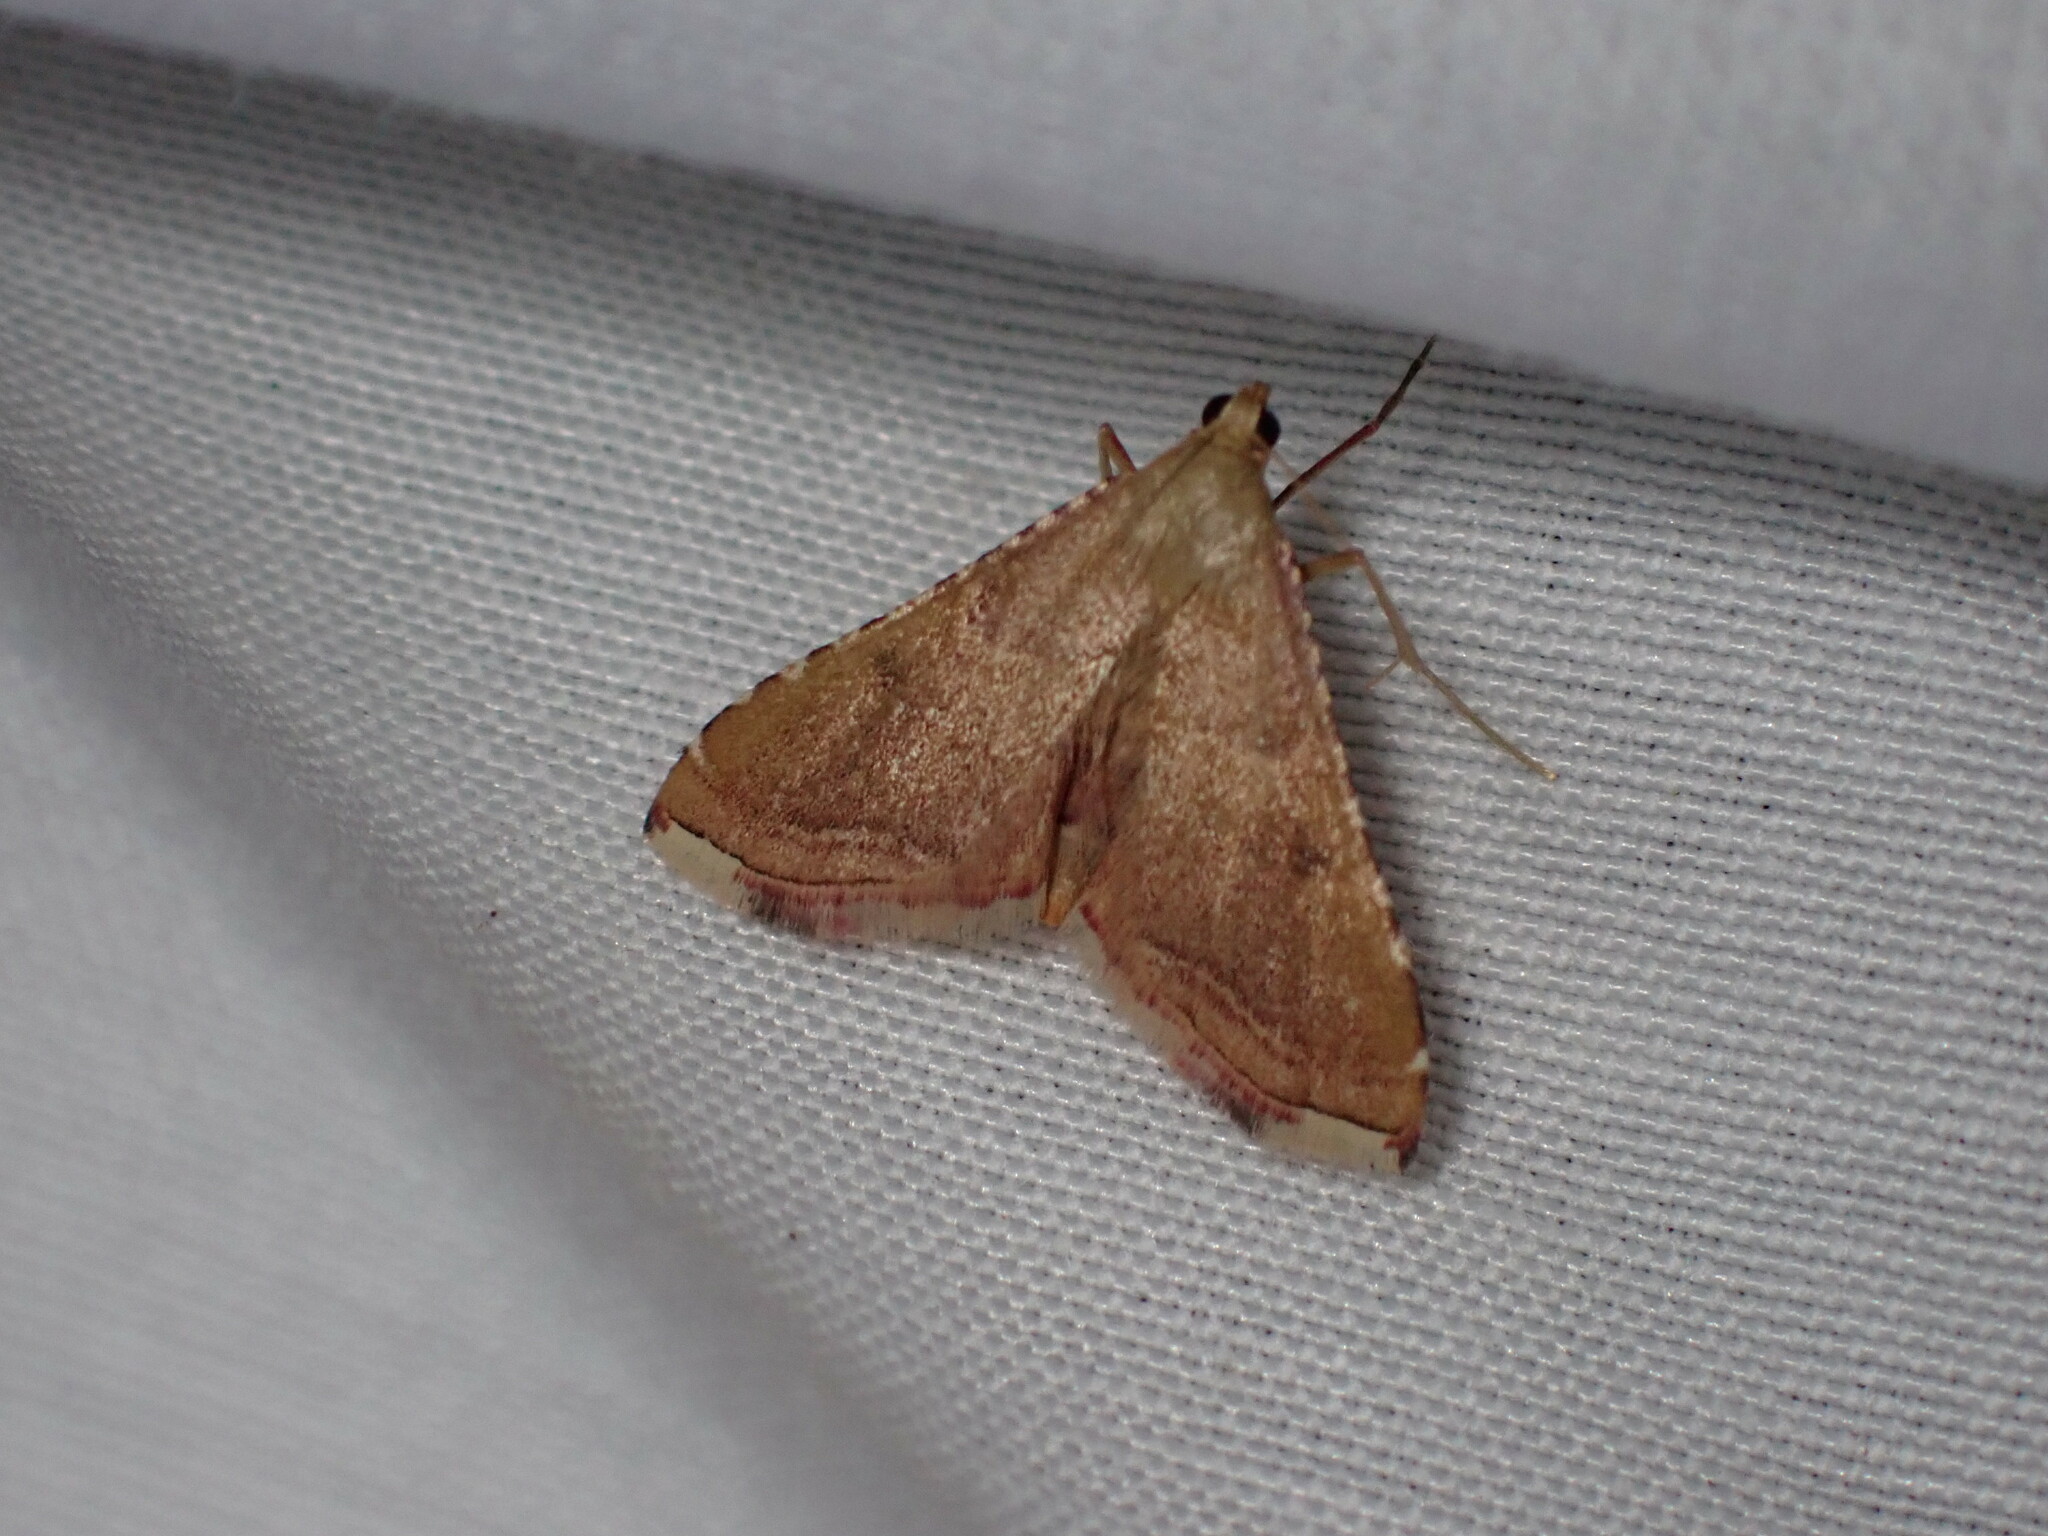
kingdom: Animalia
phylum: Arthropoda
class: Insecta
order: Lepidoptera
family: Pyralidae
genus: Endotricha
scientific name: Endotricha flammealis
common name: Rosy tabby
